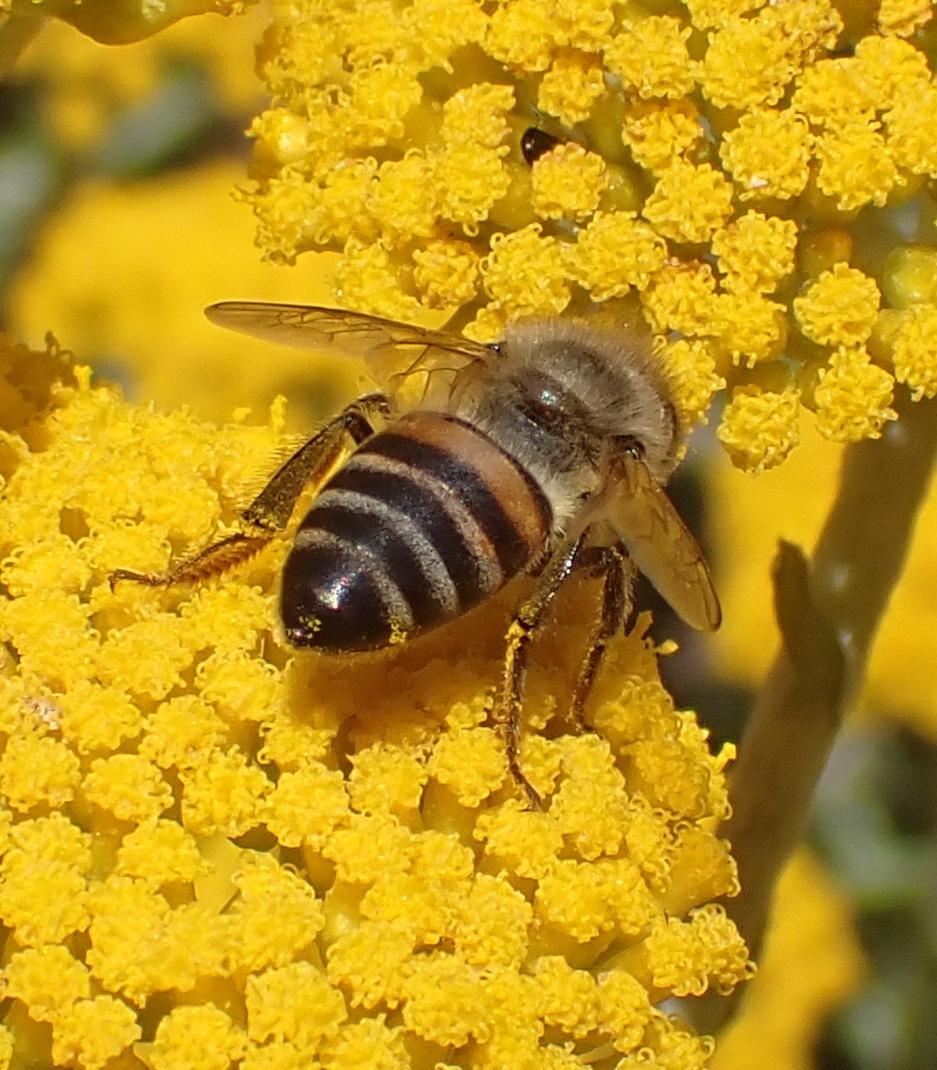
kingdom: Animalia
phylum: Arthropoda
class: Insecta
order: Hymenoptera
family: Apidae
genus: Apis
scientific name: Apis mellifera
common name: Honey bee
